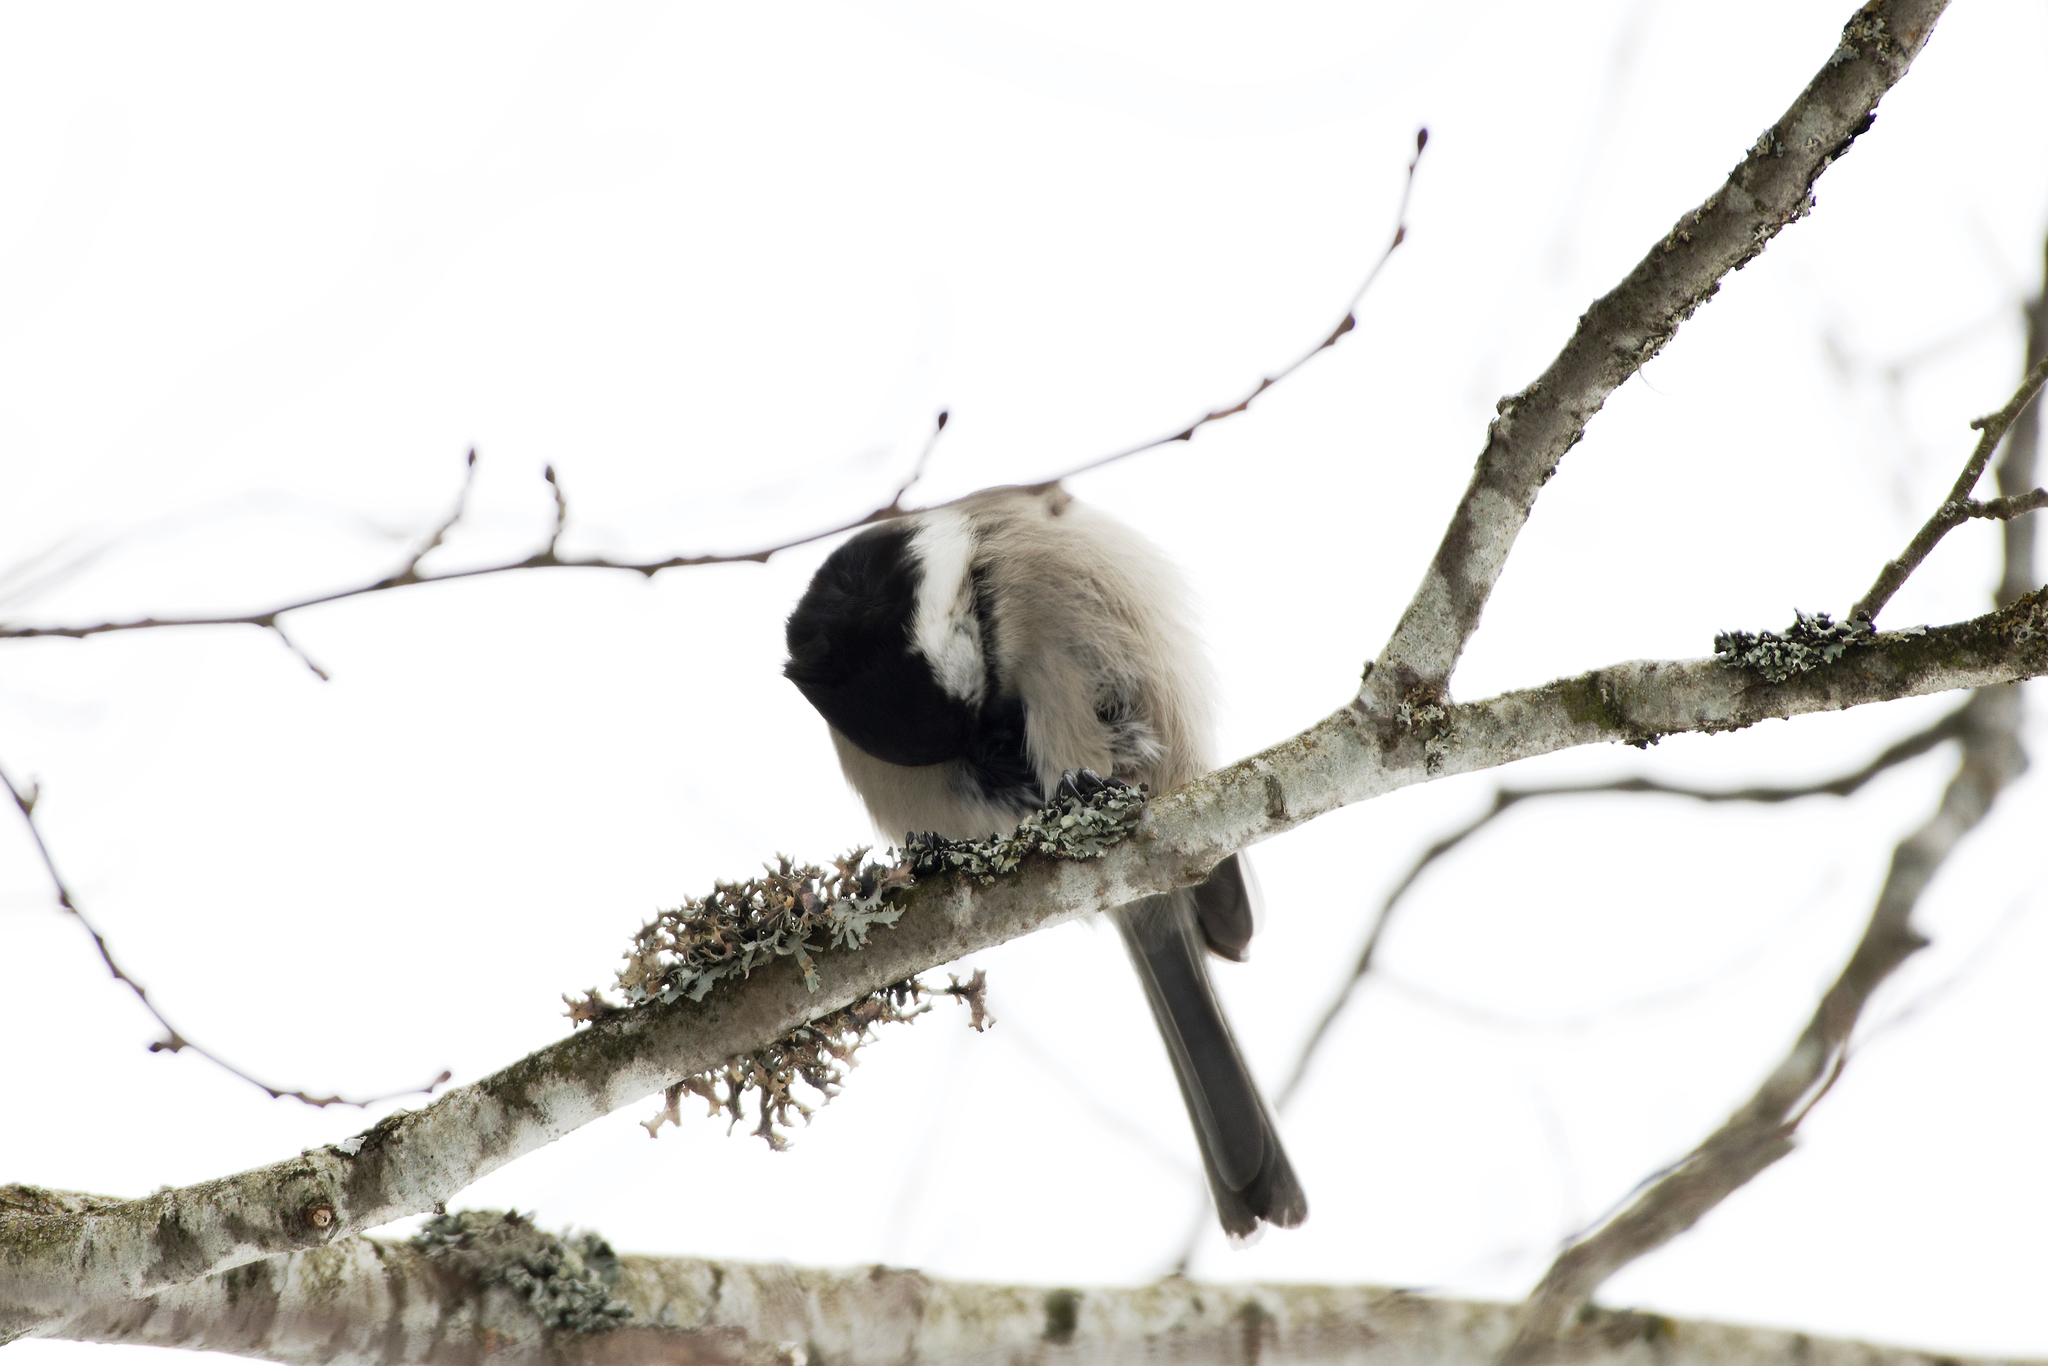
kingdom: Animalia
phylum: Chordata
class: Aves
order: Passeriformes
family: Paridae
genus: Poecile
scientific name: Poecile montanus
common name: Willow tit
